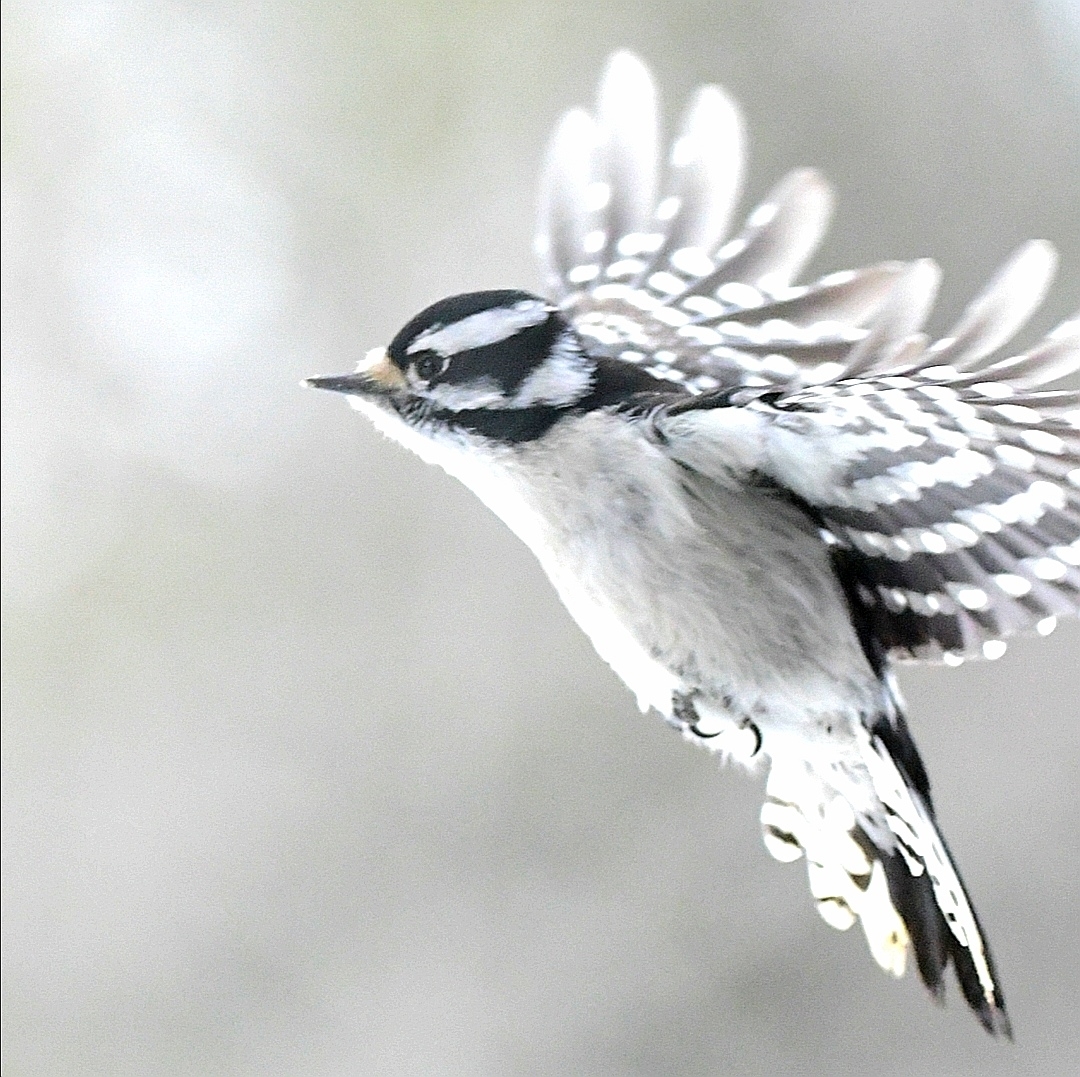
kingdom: Animalia
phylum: Chordata
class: Aves
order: Piciformes
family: Picidae
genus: Dryobates
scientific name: Dryobates pubescens
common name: Downy woodpecker
